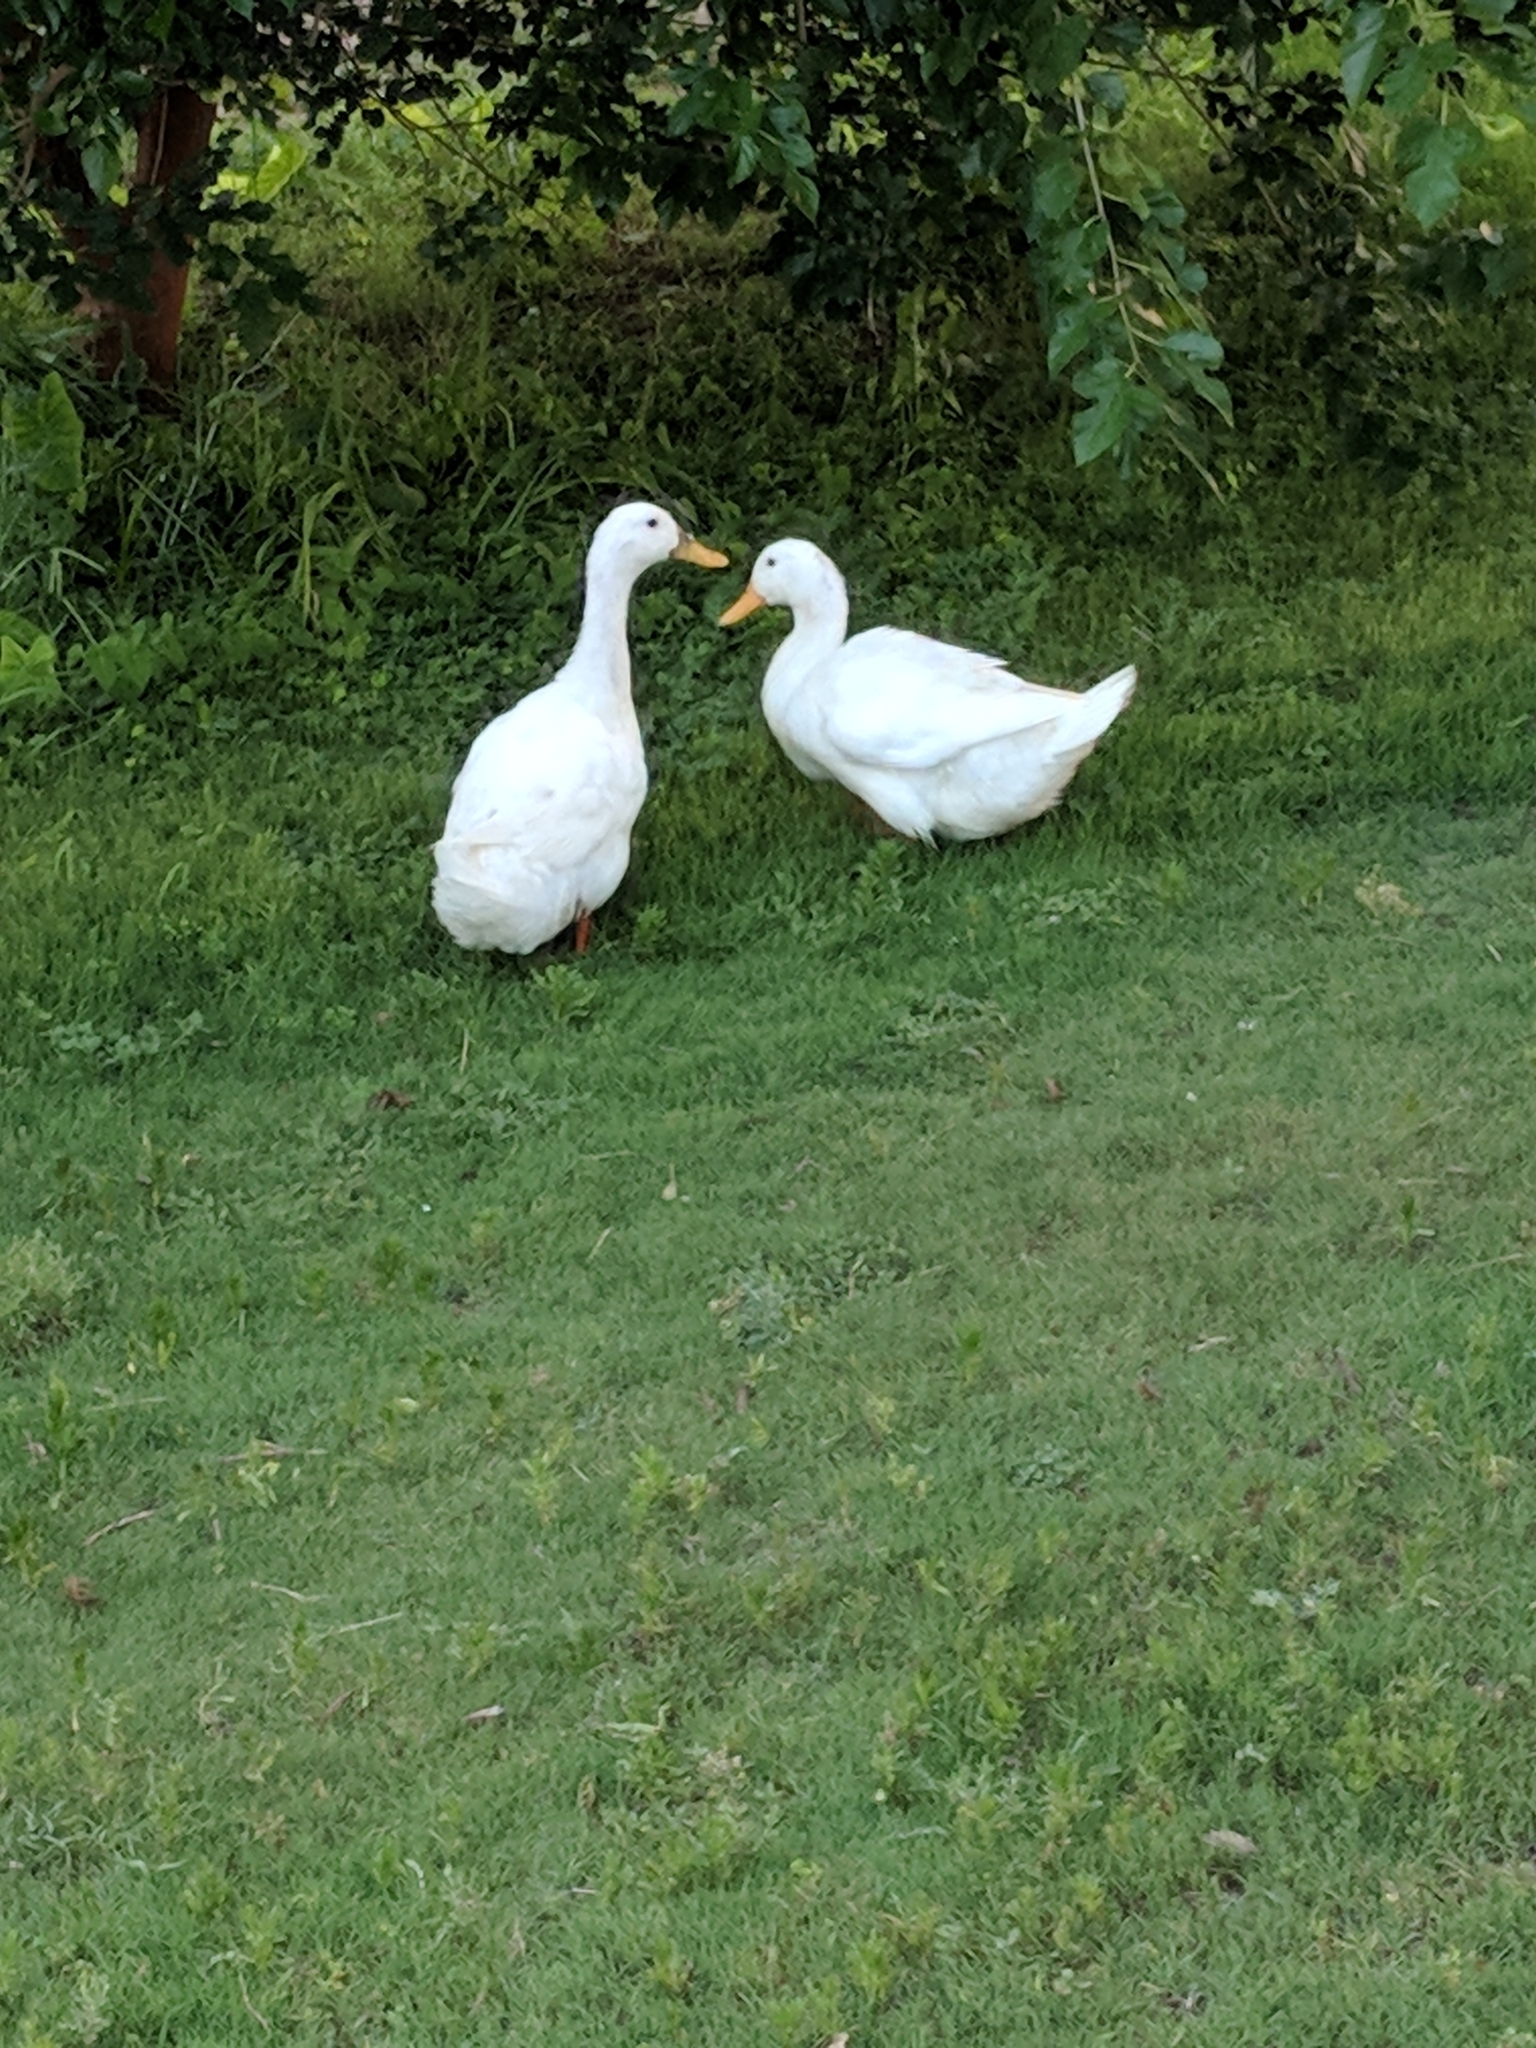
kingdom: Animalia
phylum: Chordata
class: Aves
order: Anseriformes
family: Anatidae
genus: Anas
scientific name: Anas platyrhynchos
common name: Mallard
